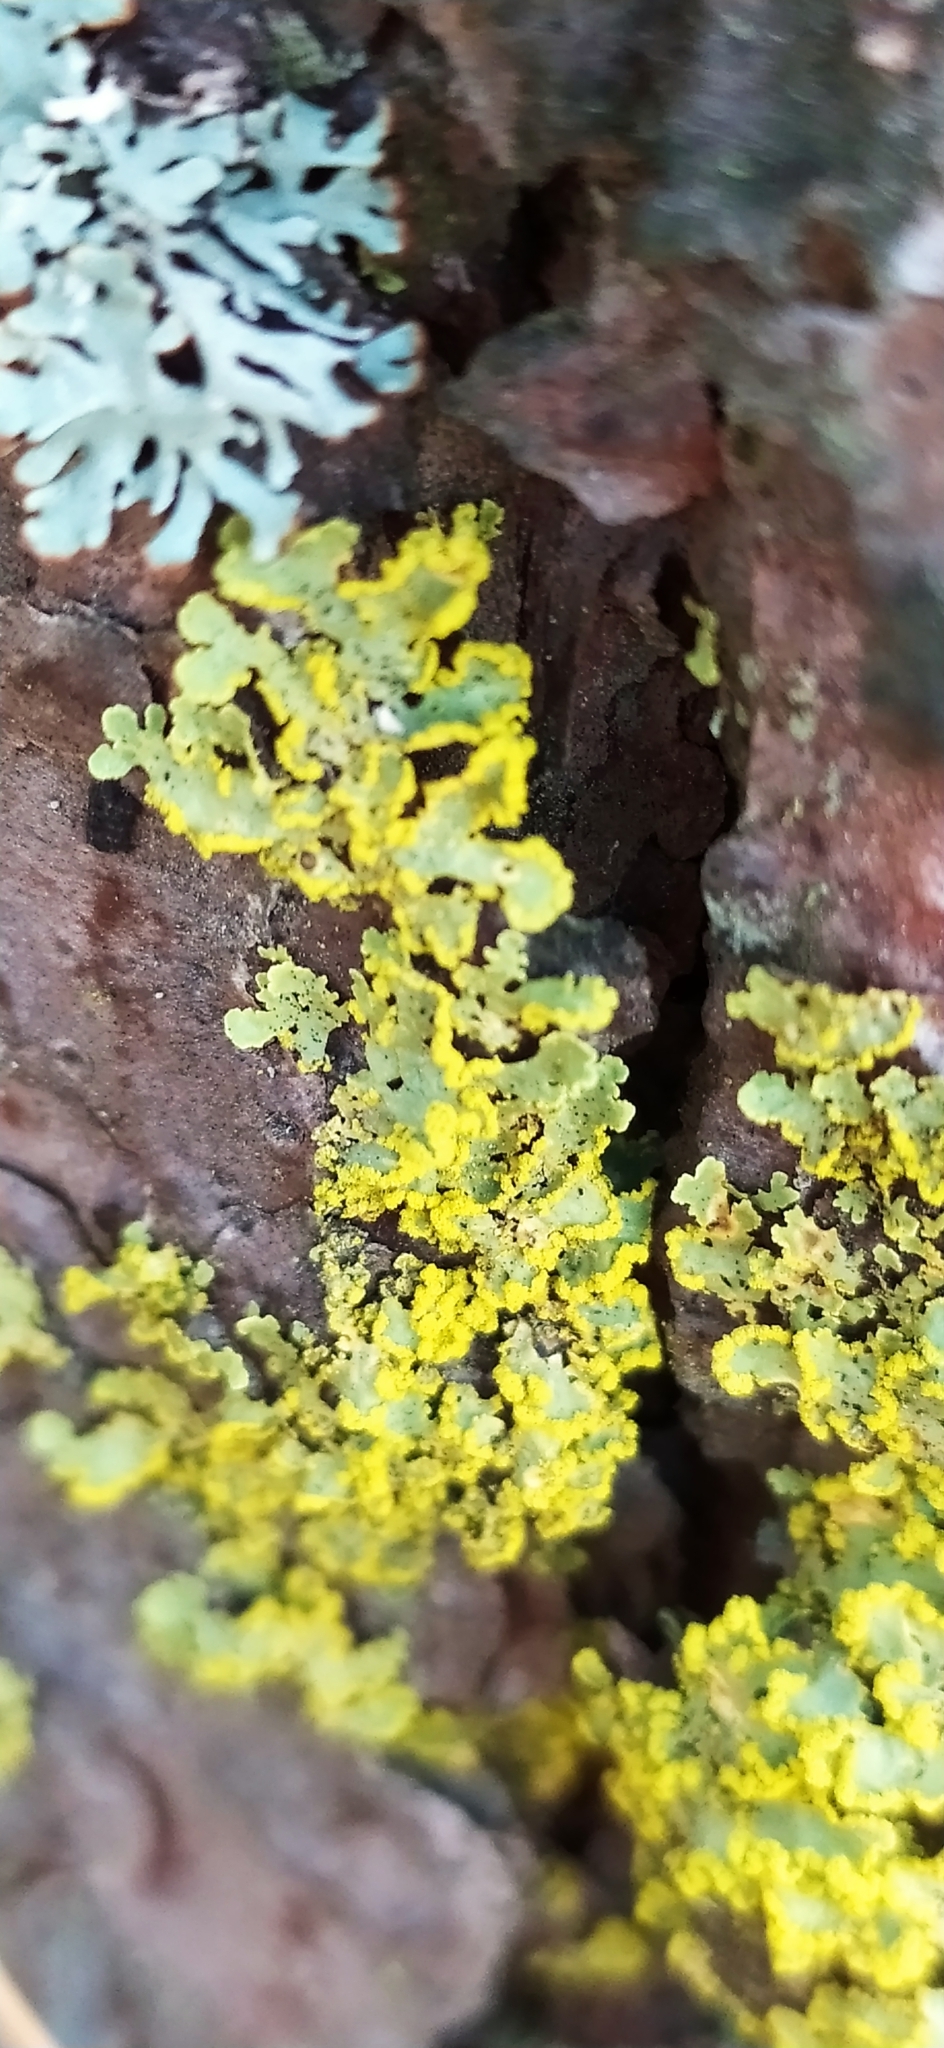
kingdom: Fungi
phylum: Ascomycota
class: Lecanoromycetes
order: Lecanorales
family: Parmeliaceae
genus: Vulpicida
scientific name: Vulpicida pinastri
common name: Powdered sunshine lichen
